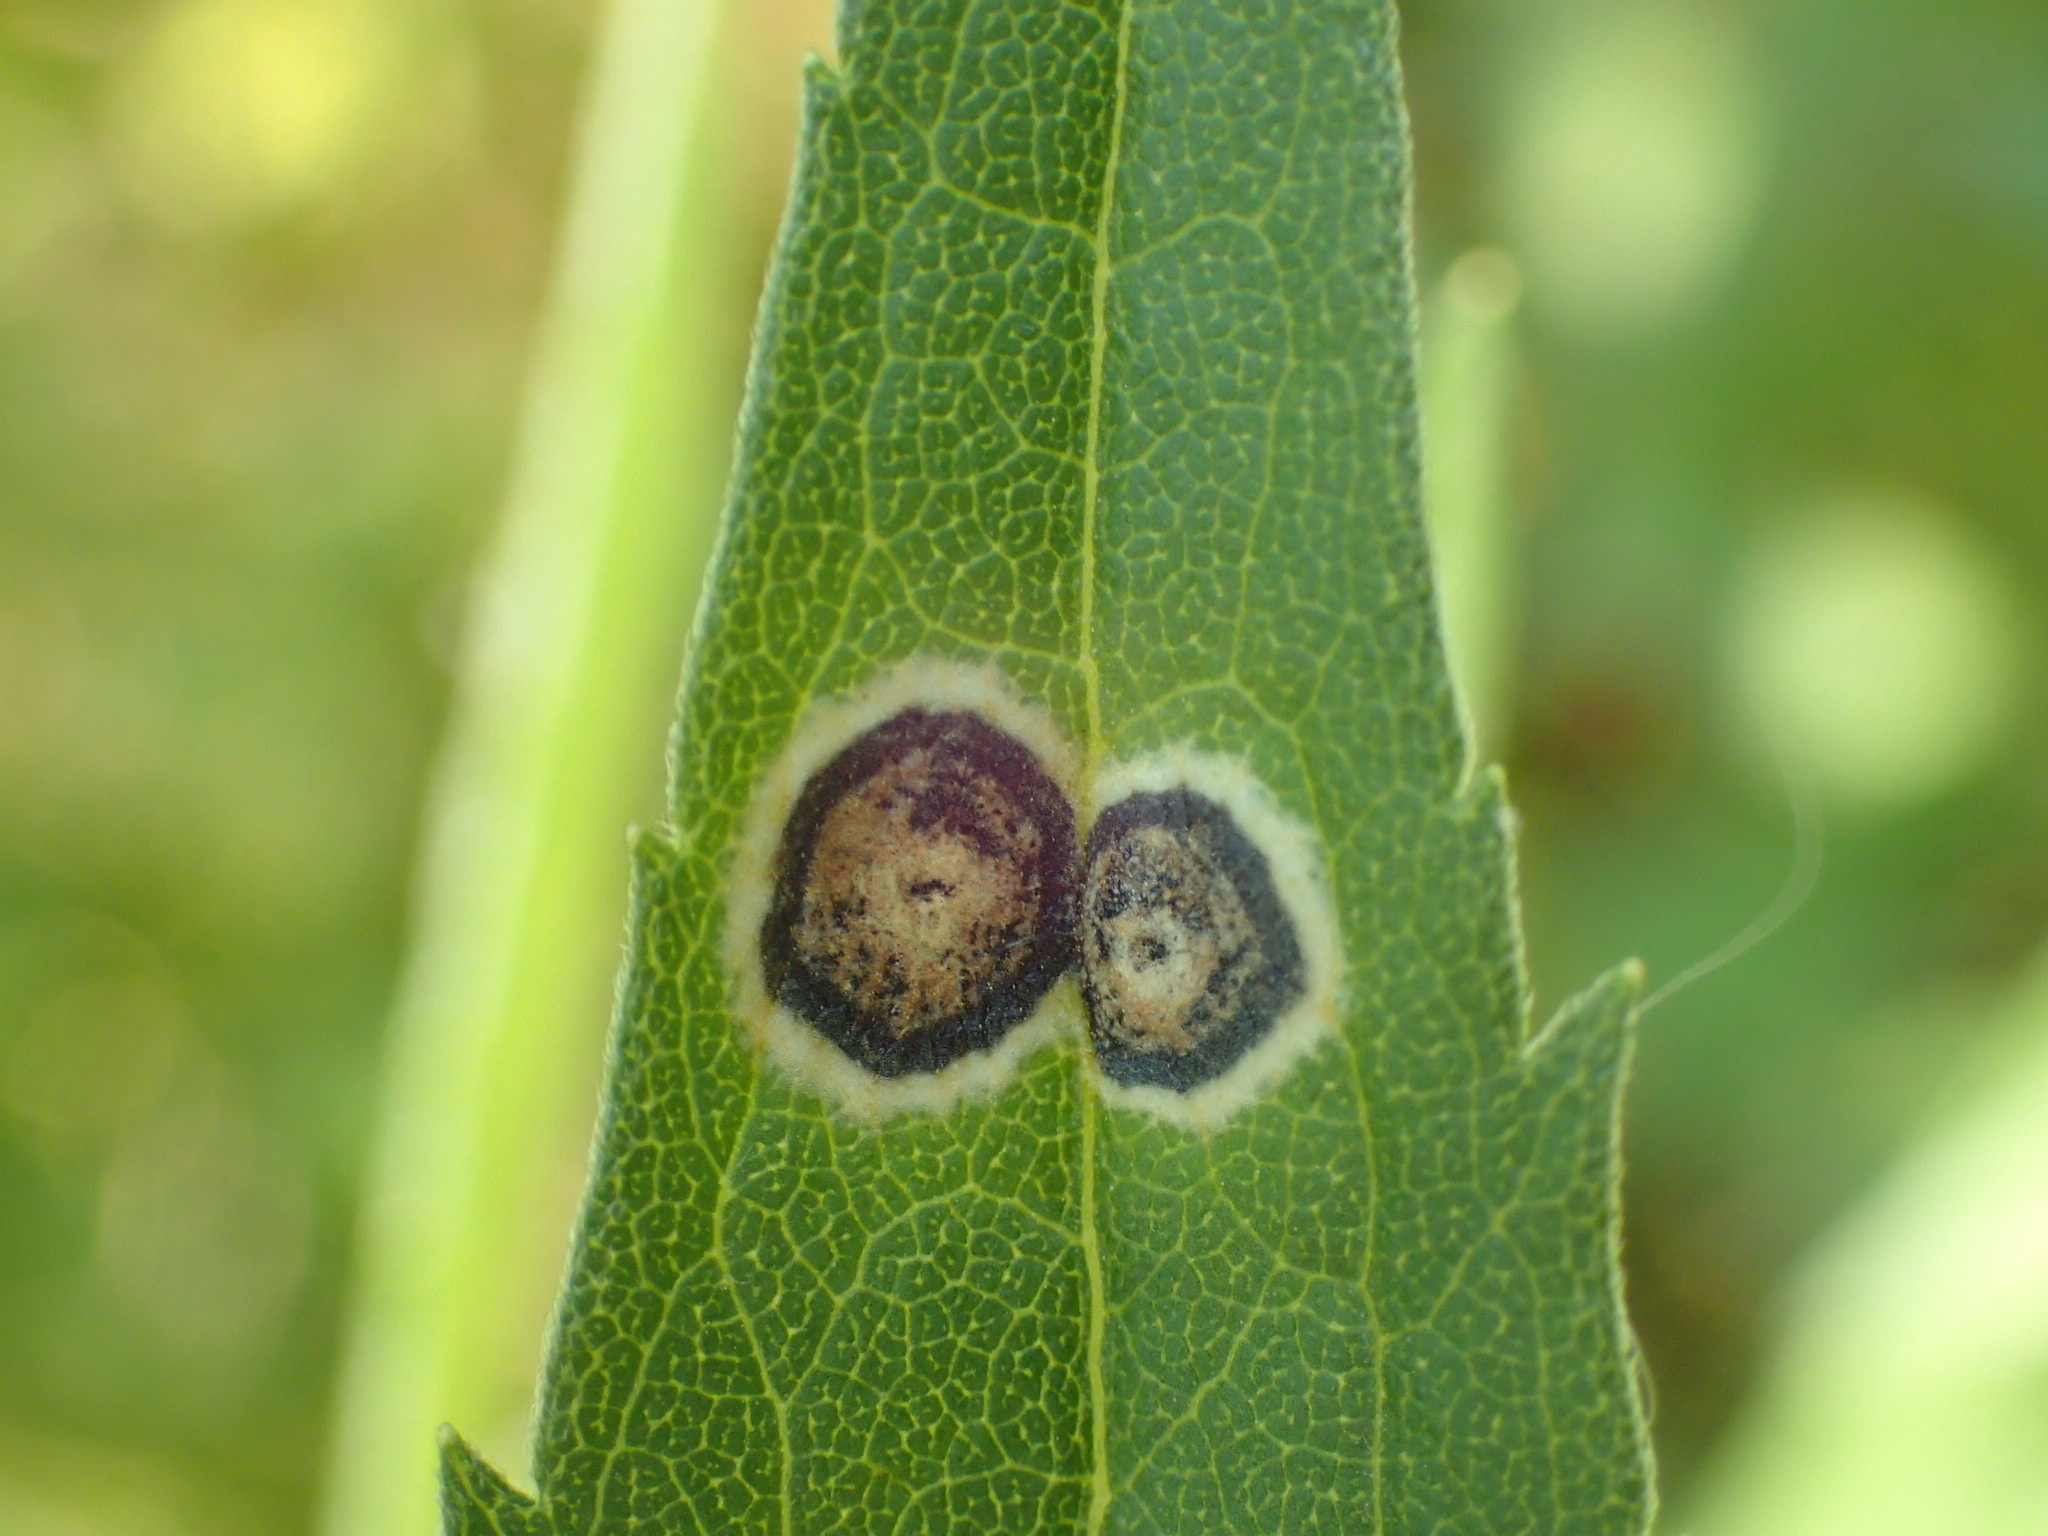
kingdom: Animalia
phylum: Arthropoda
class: Insecta
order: Diptera
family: Cecidomyiidae
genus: Asteromyia
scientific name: Asteromyia carbonifera
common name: Carbonifera goldenrod gall midge
